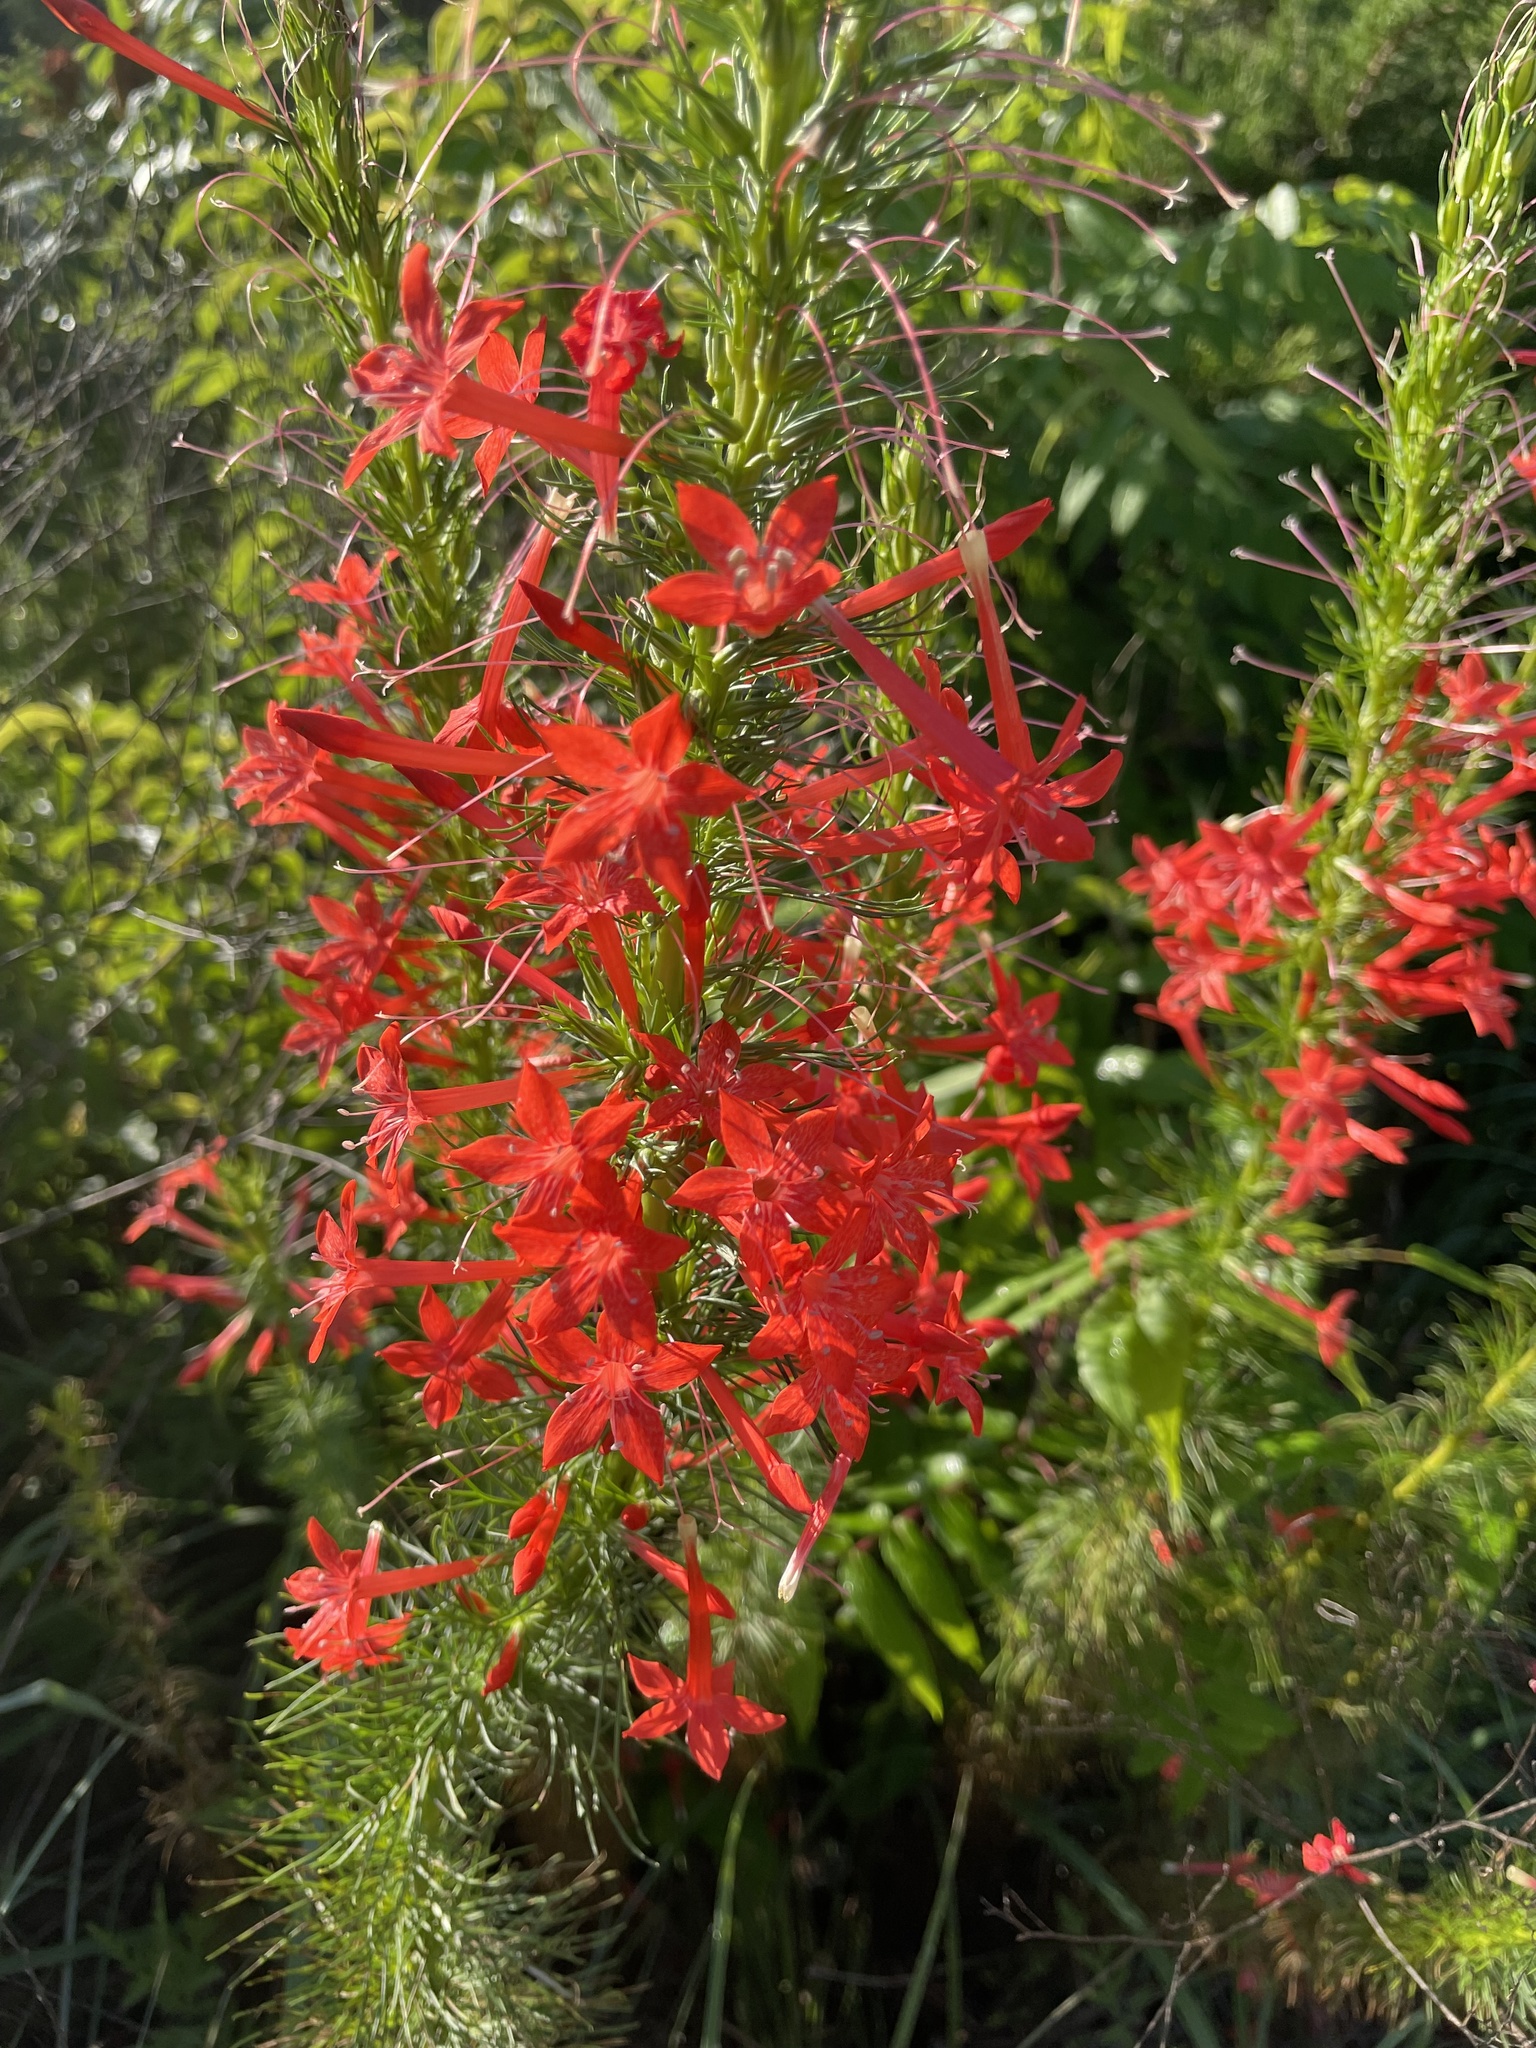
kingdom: Plantae
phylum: Tracheophyta
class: Magnoliopsida
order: Ericales
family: Polemoniaceae
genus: Ipomopsis
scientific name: Ipomopsis rubra
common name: Skyrocket
